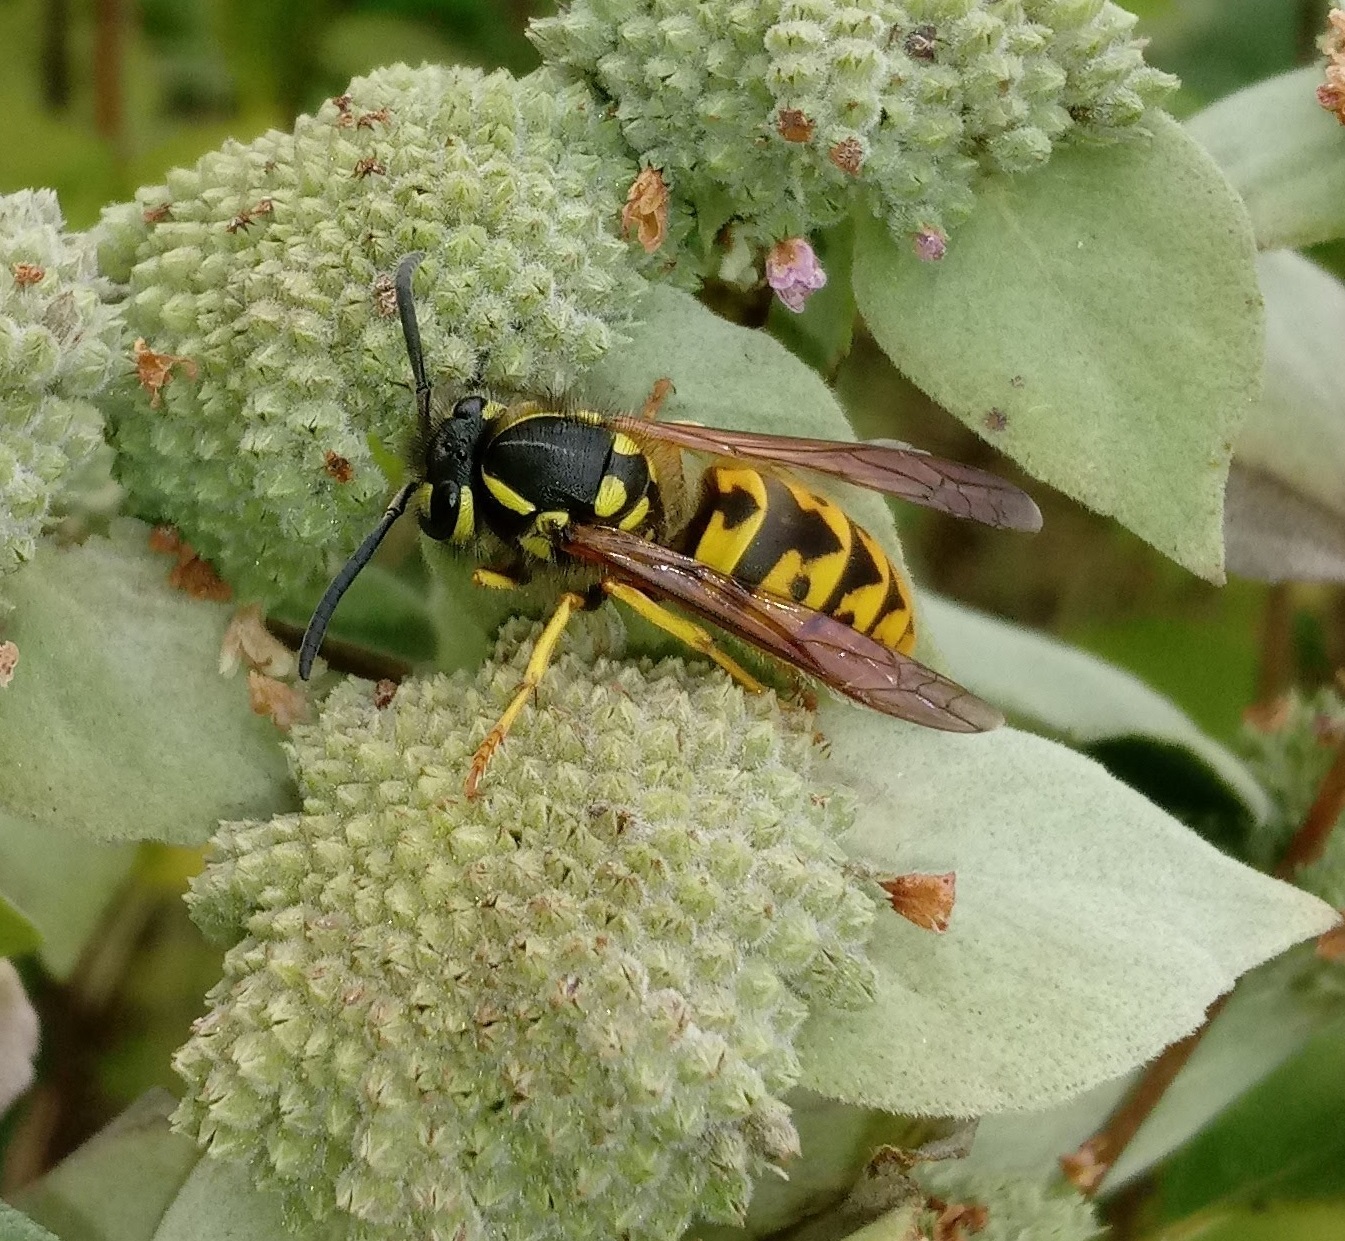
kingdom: Animalia
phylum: Arthropoda
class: Insecta
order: Hymenoptera
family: Vespidae
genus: Vespula
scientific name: Vespula germanica
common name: German wasp
